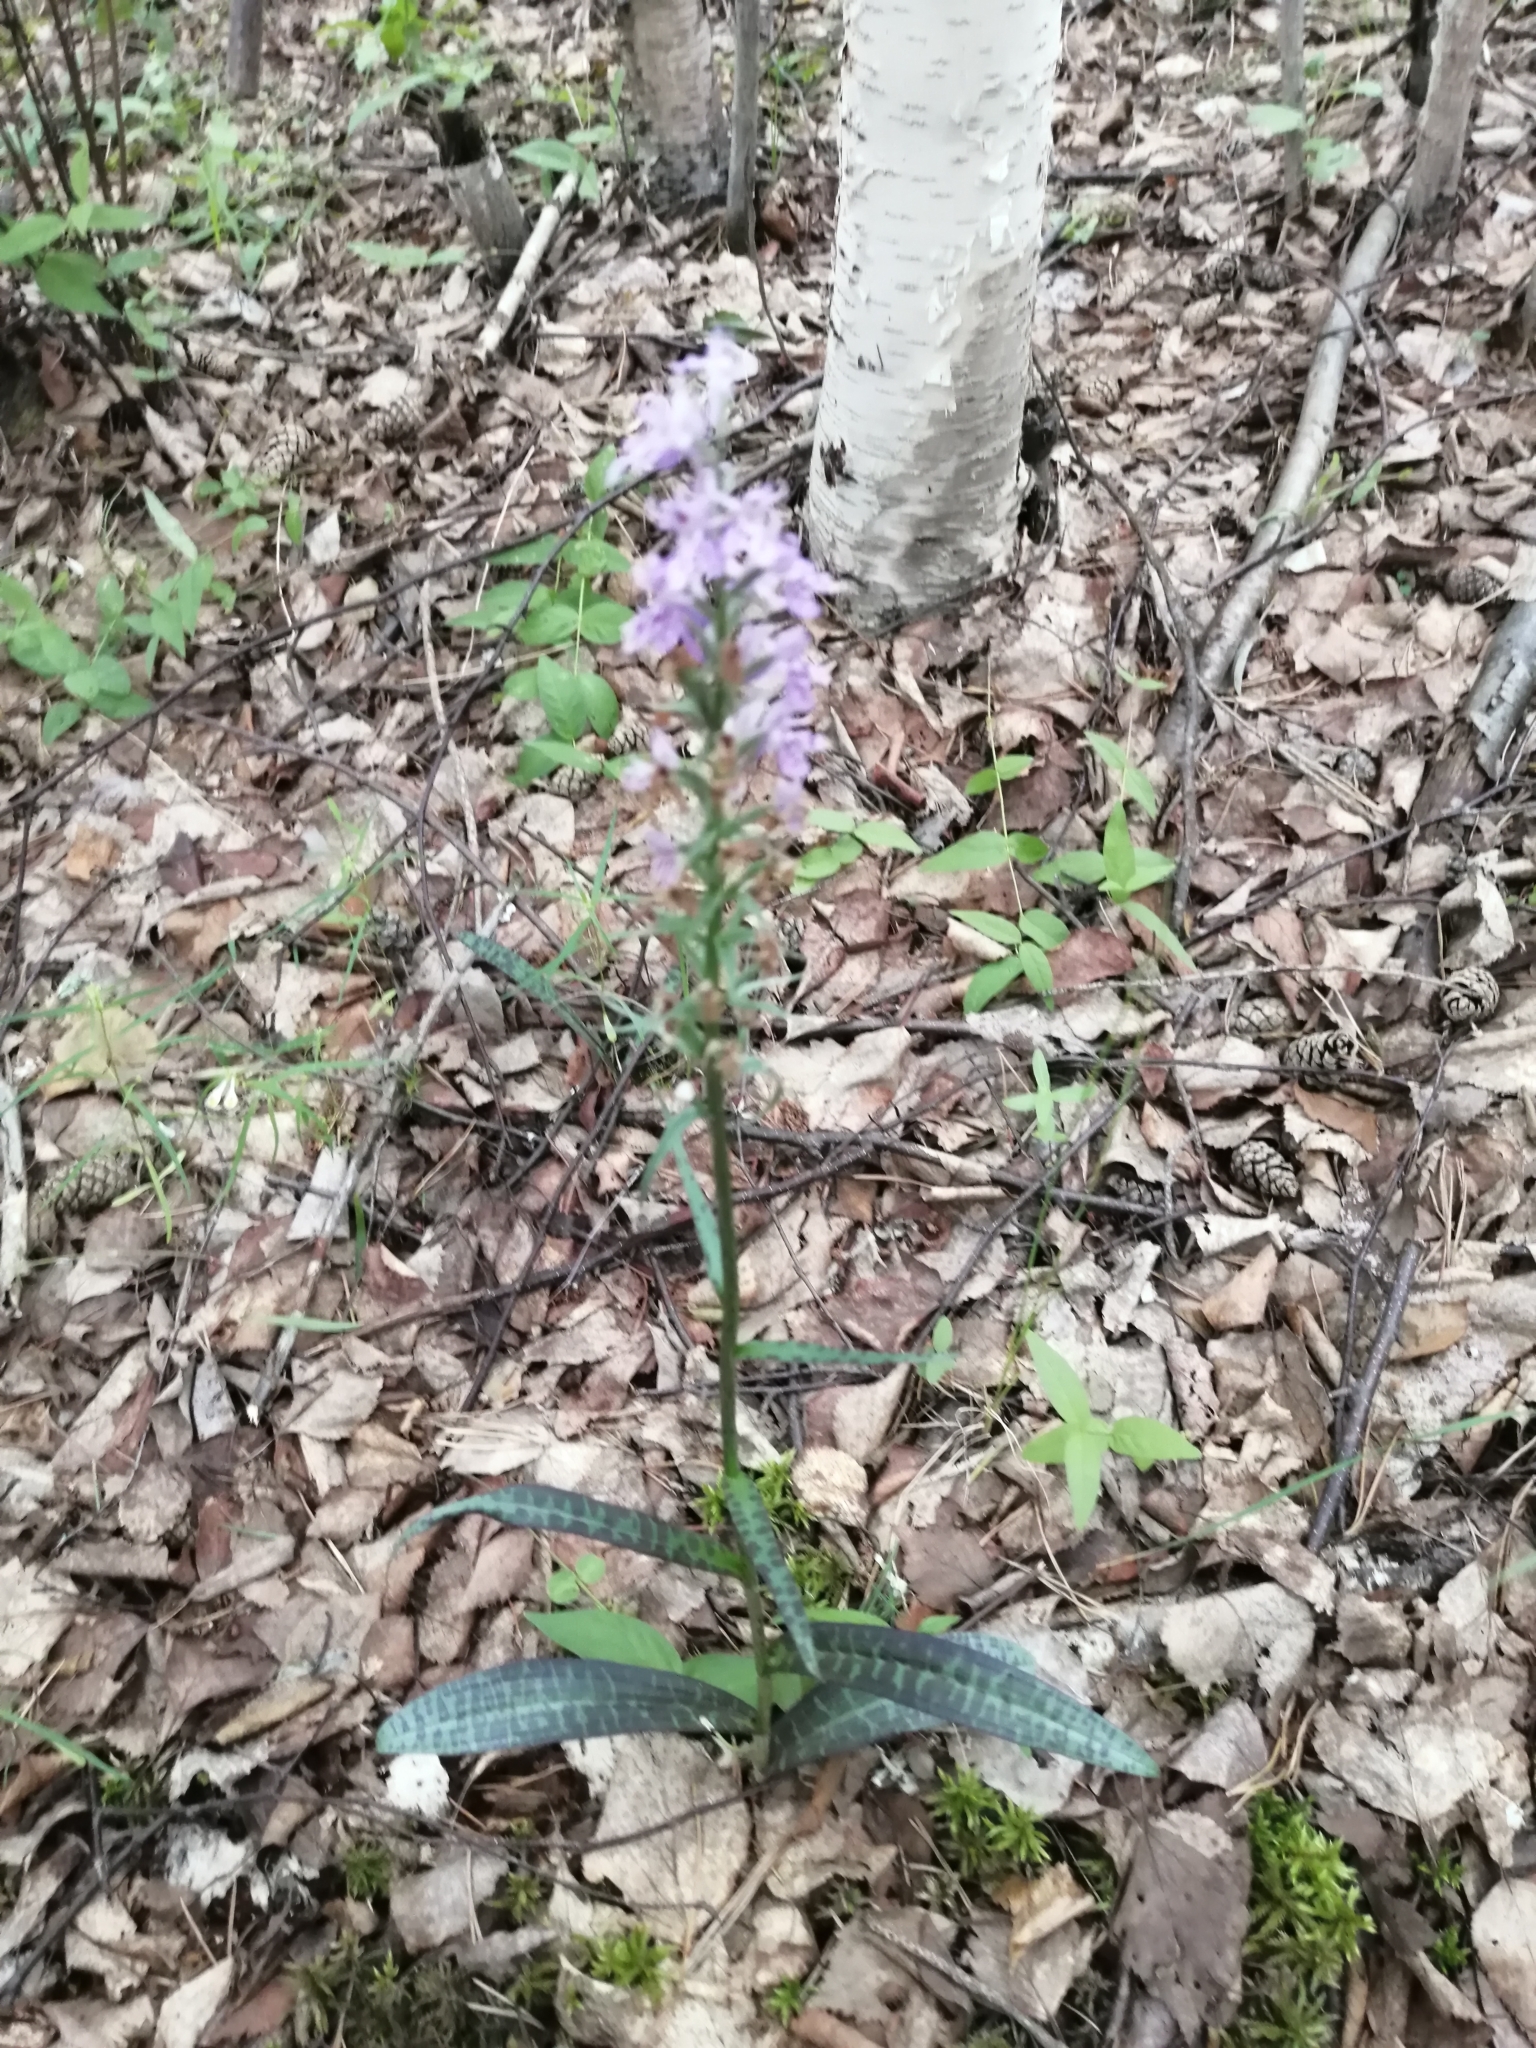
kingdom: Plantae
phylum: Tracheophyta
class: Liliopsida
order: Asparagales
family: Orchidaceae
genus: Dactylorhiza
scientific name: Dactylorhiza maculata
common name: Heath spotted-orchid
